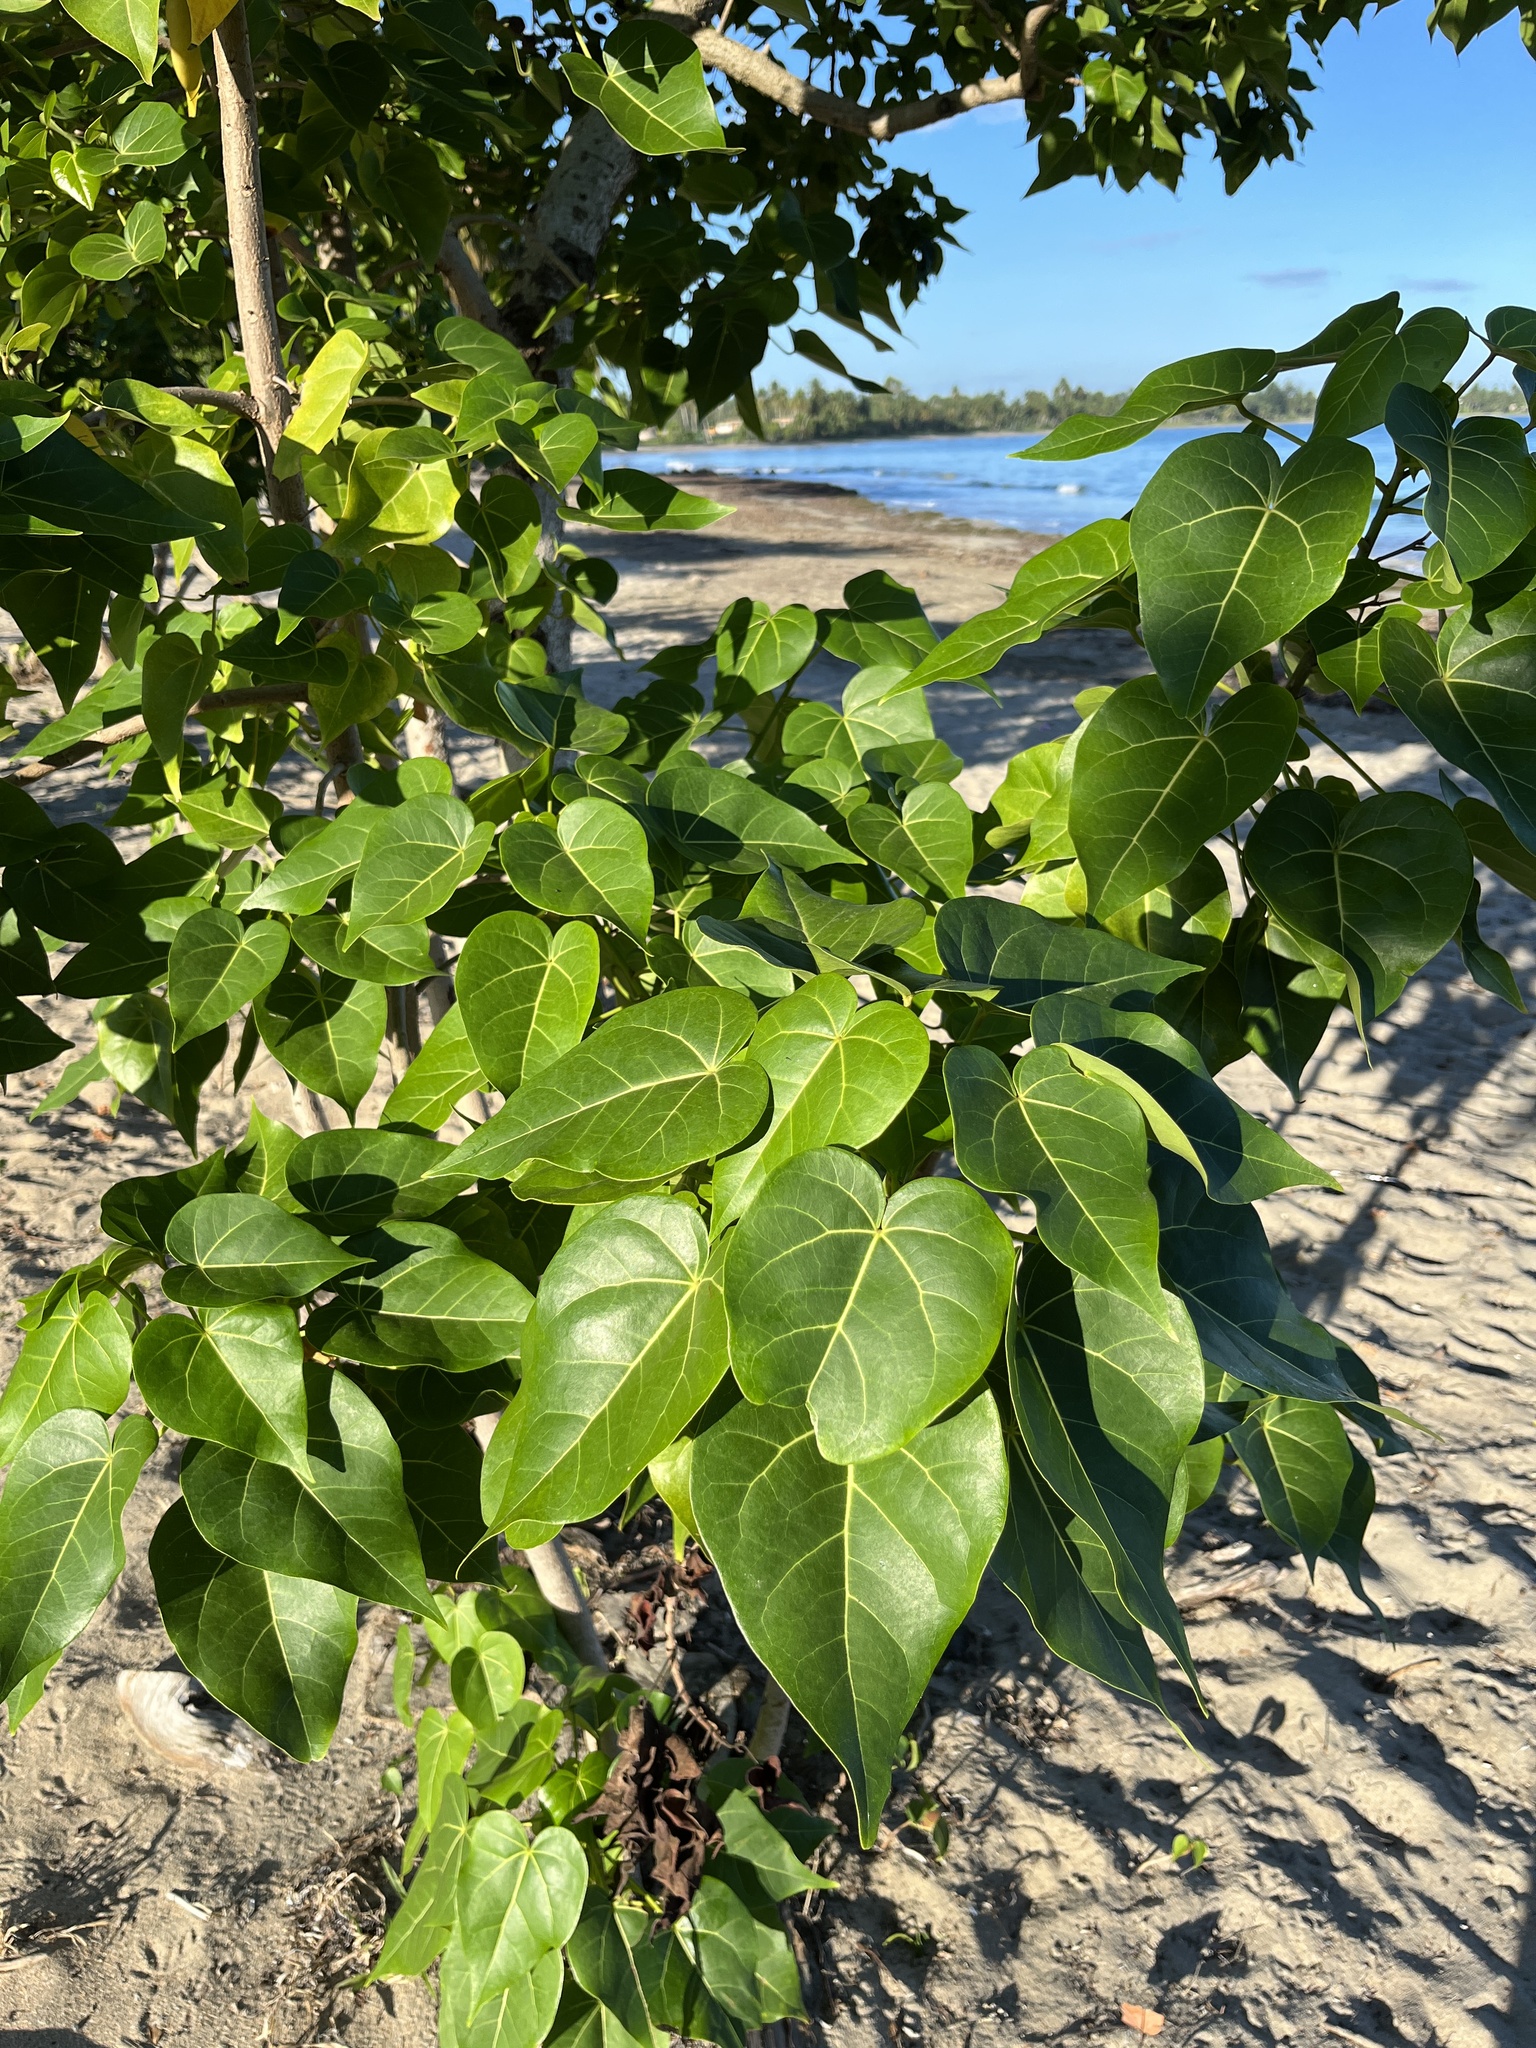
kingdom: Plantae
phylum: Tracheophyta
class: Magnoliopsida
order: Malvales
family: Malvaceae
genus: Thespesia
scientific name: Thespesia populnea
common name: Seaside mahoe
